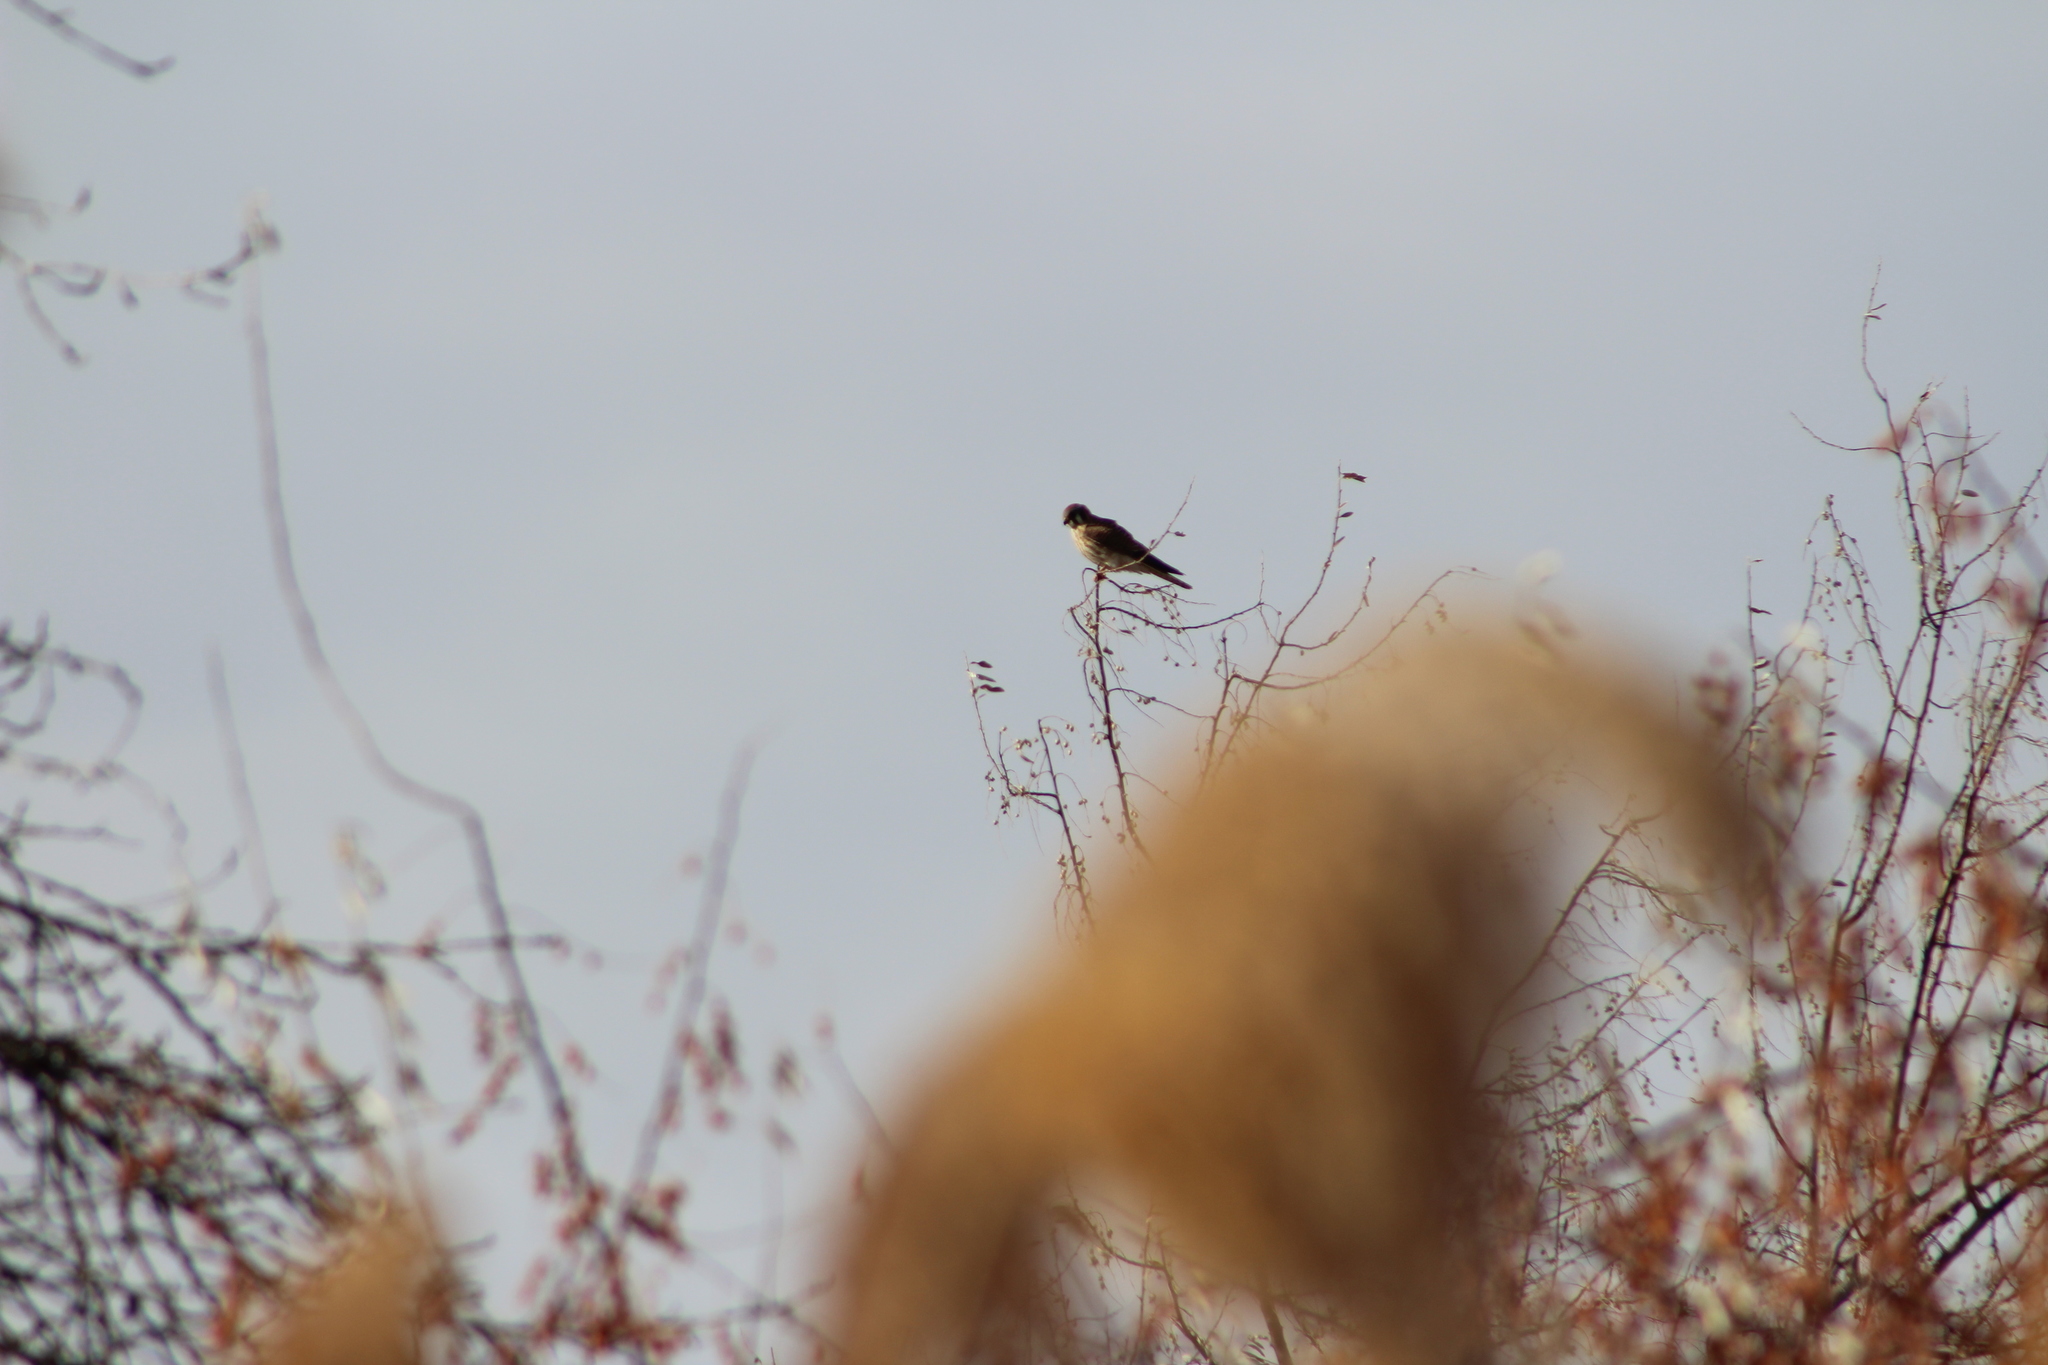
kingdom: Animalia
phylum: Chordata
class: Aves
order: Falconiformes
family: Falconidae
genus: Falco
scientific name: Falco sparverius
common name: American kestrel
